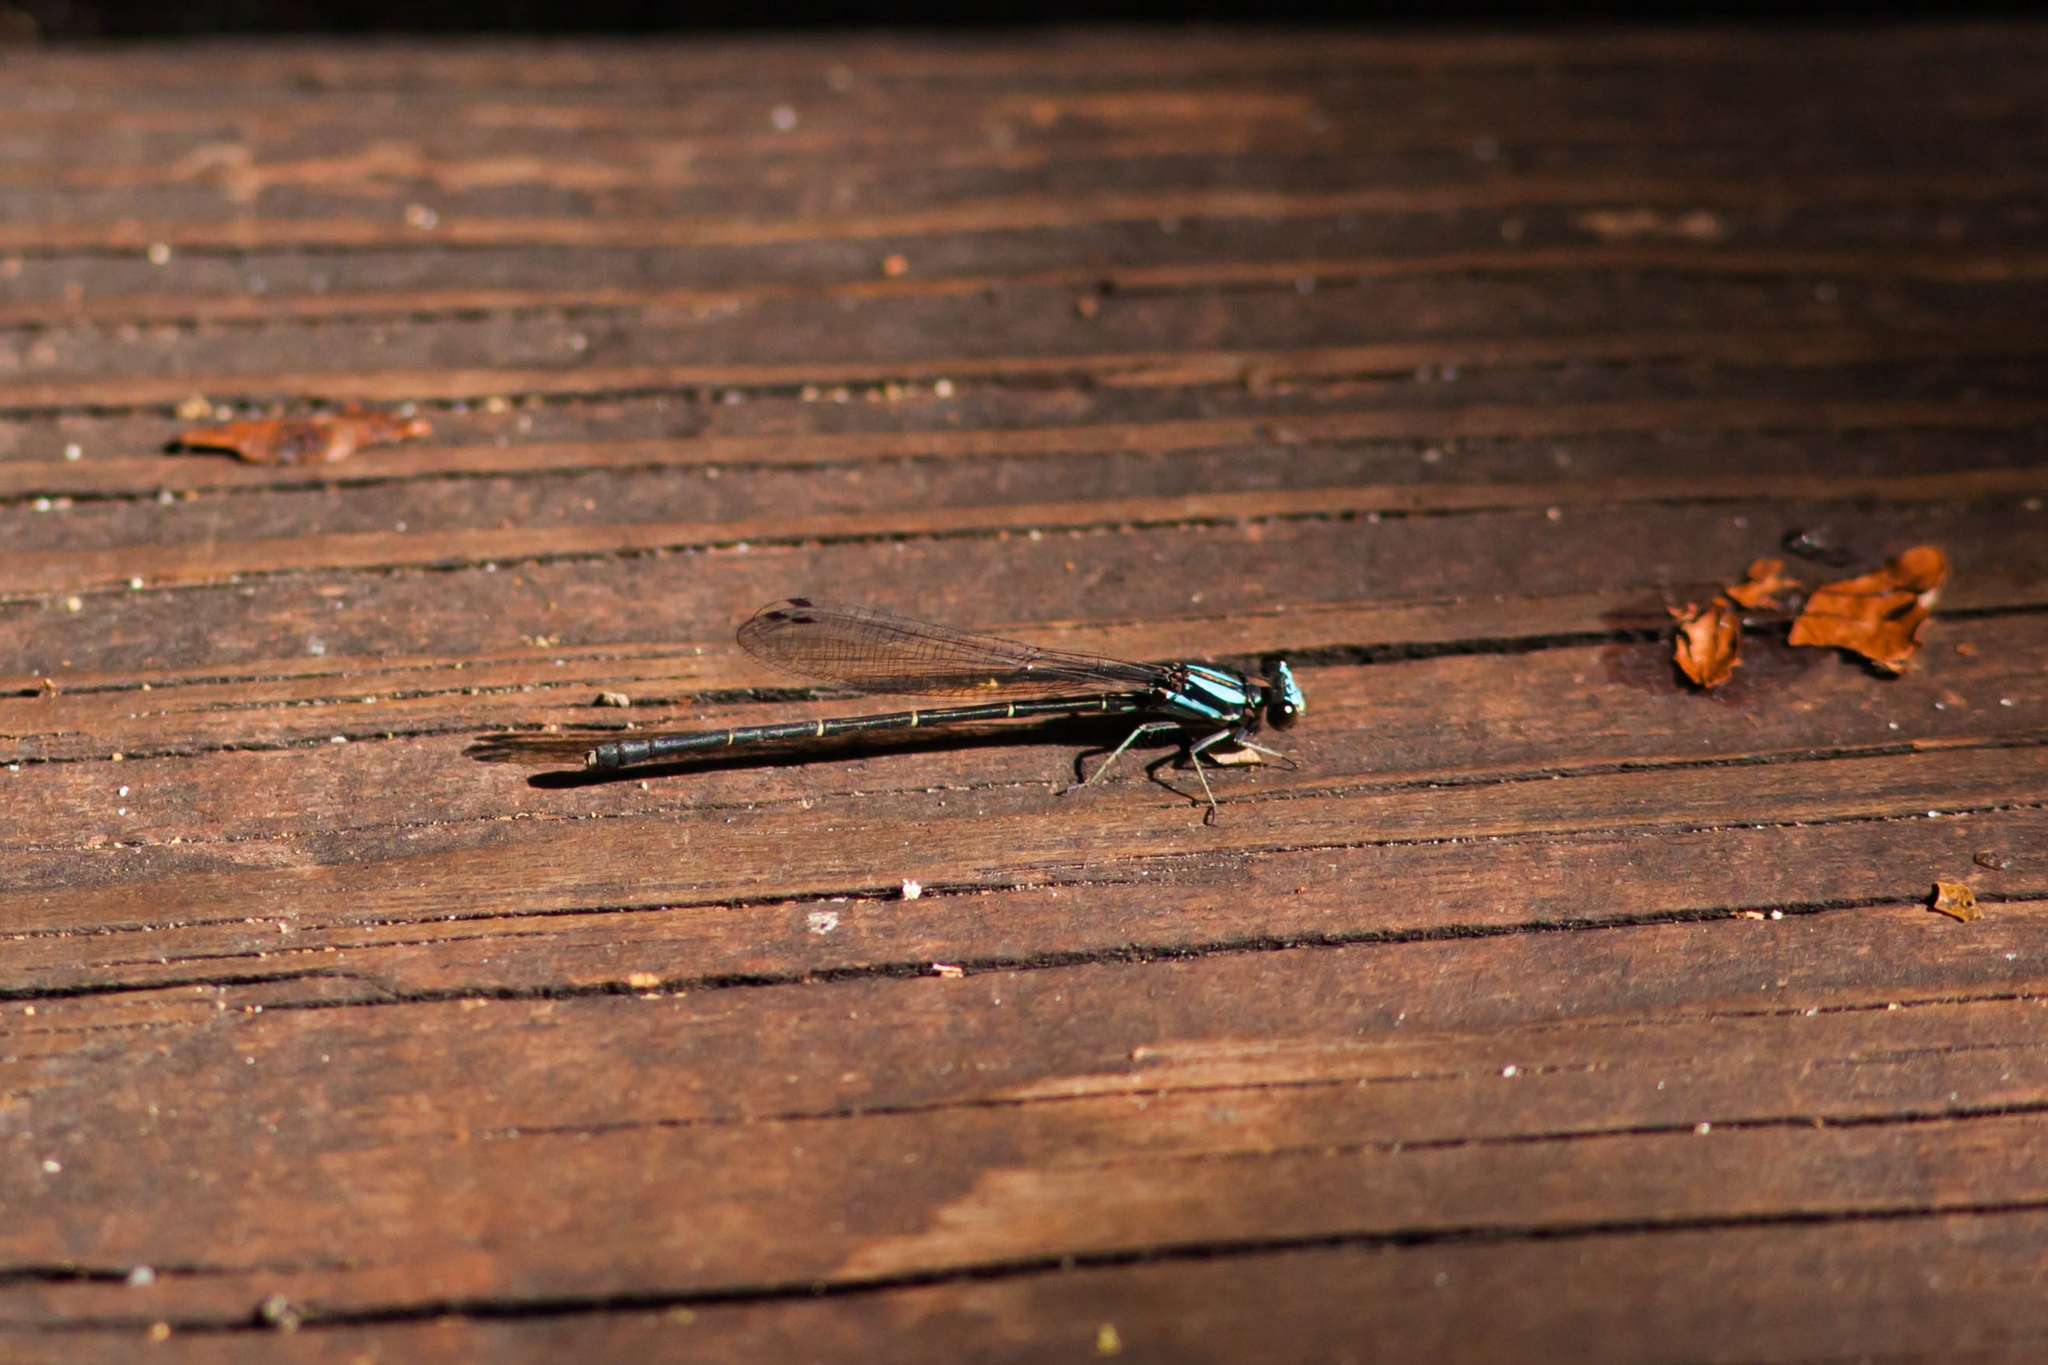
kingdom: Animalia
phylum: Arthropoda
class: Insecta
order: Odonata
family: Coenagrionidae
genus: Argia
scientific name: Argia tibialis
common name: Blue-tipped dancer
